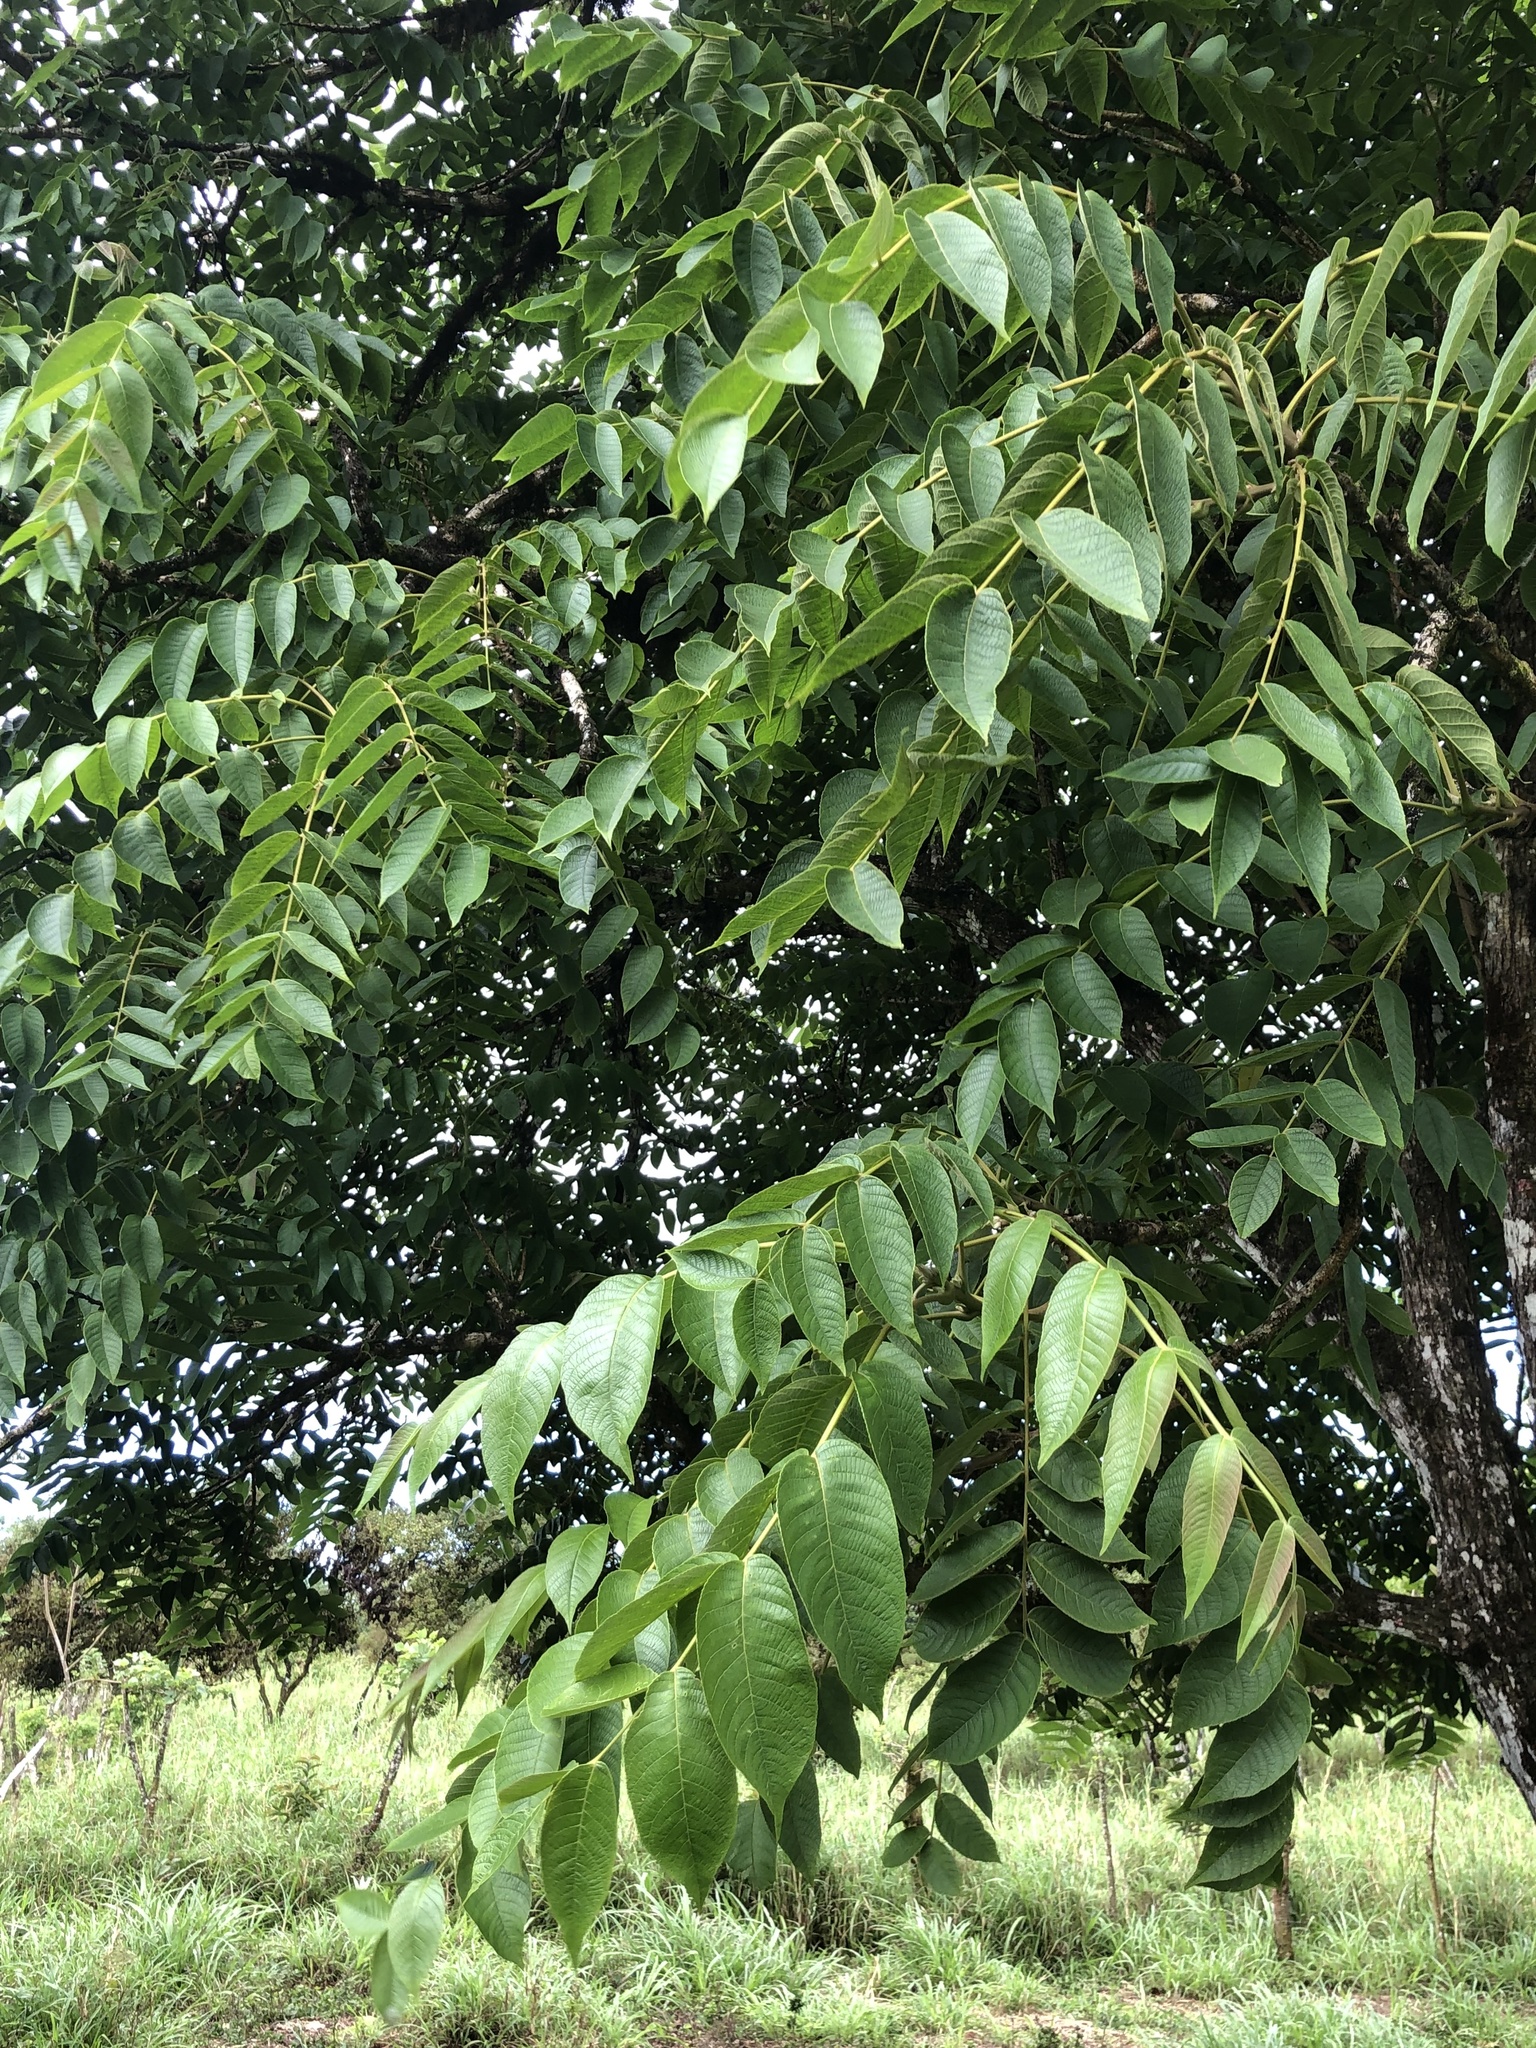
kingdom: Plantae
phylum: Tracheophyta
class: Magnoliopsida
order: Fagales
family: Juglandaceae
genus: Juglans
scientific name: Juglans neotropica
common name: Andean walnut
